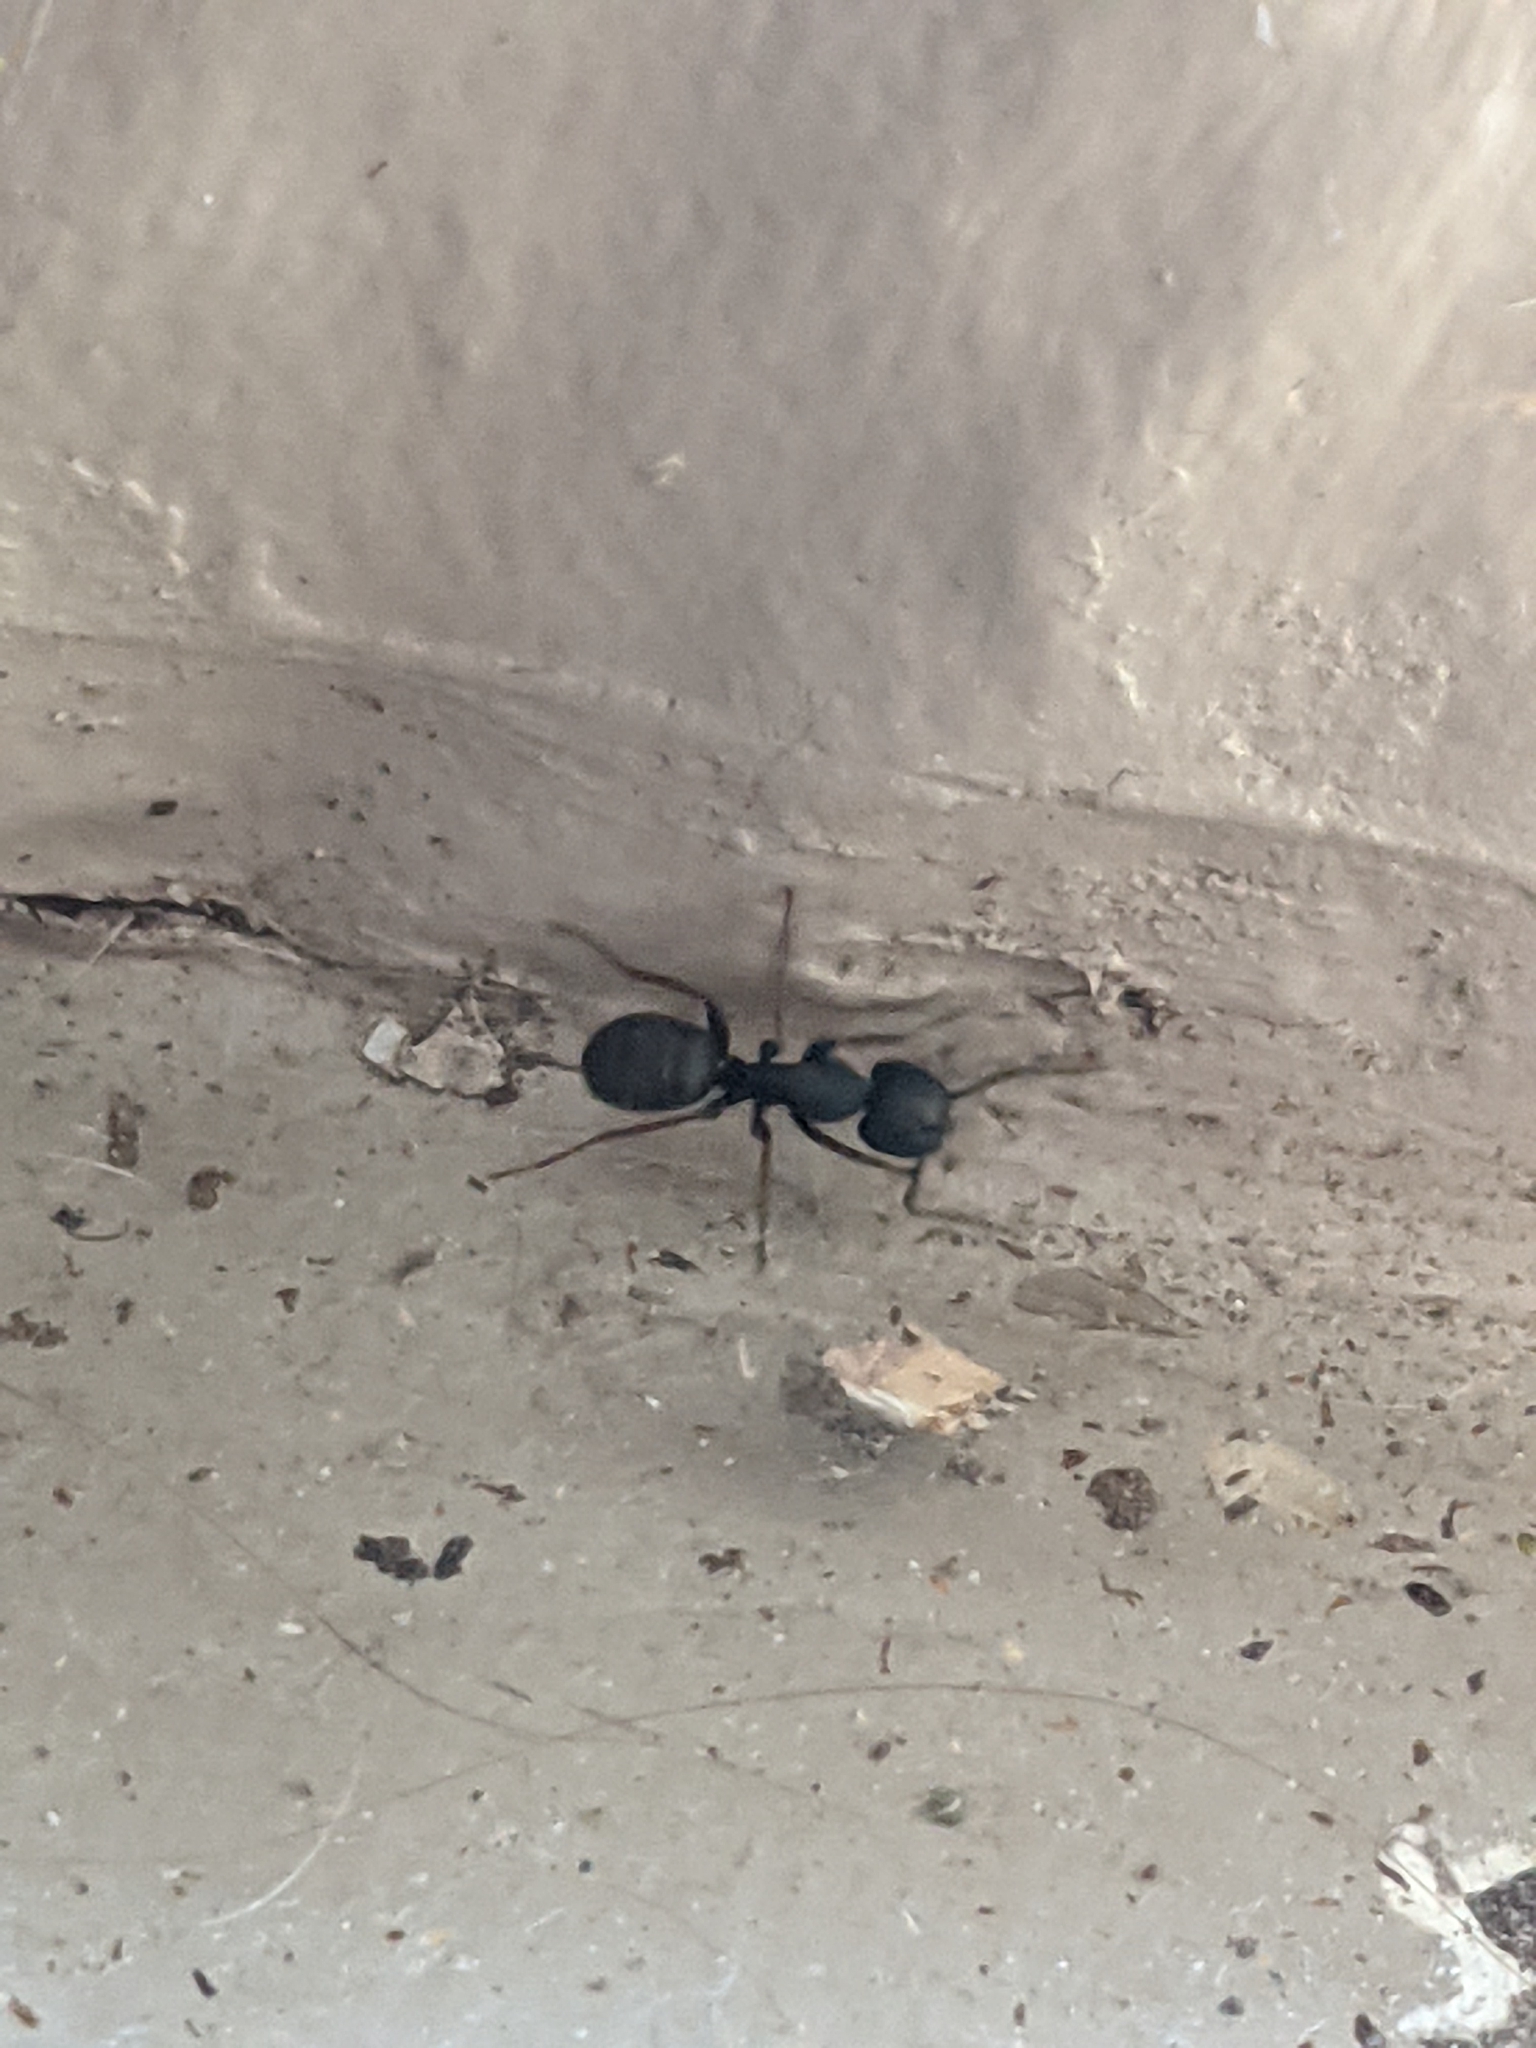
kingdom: Animalia
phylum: Arthropoda
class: Insecta
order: Hymenoptera
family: Formicidae
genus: Camponotus
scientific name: Camponotus modoc
